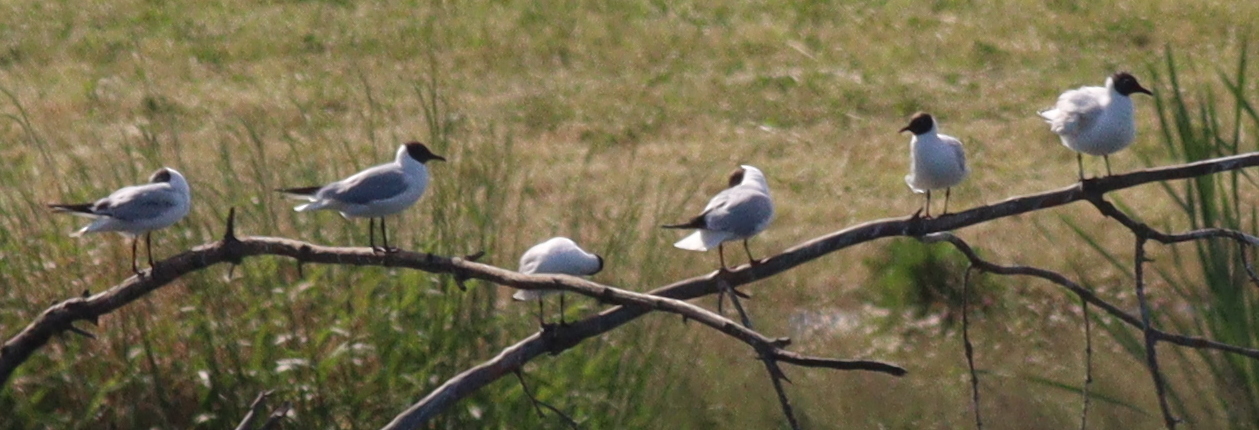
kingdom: Animalia
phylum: Chordata
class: Aves
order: Charadriiformes
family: Laridae
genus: Chroicocephalus
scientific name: Chroicocephalus ridibundus
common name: Black-headed gull
